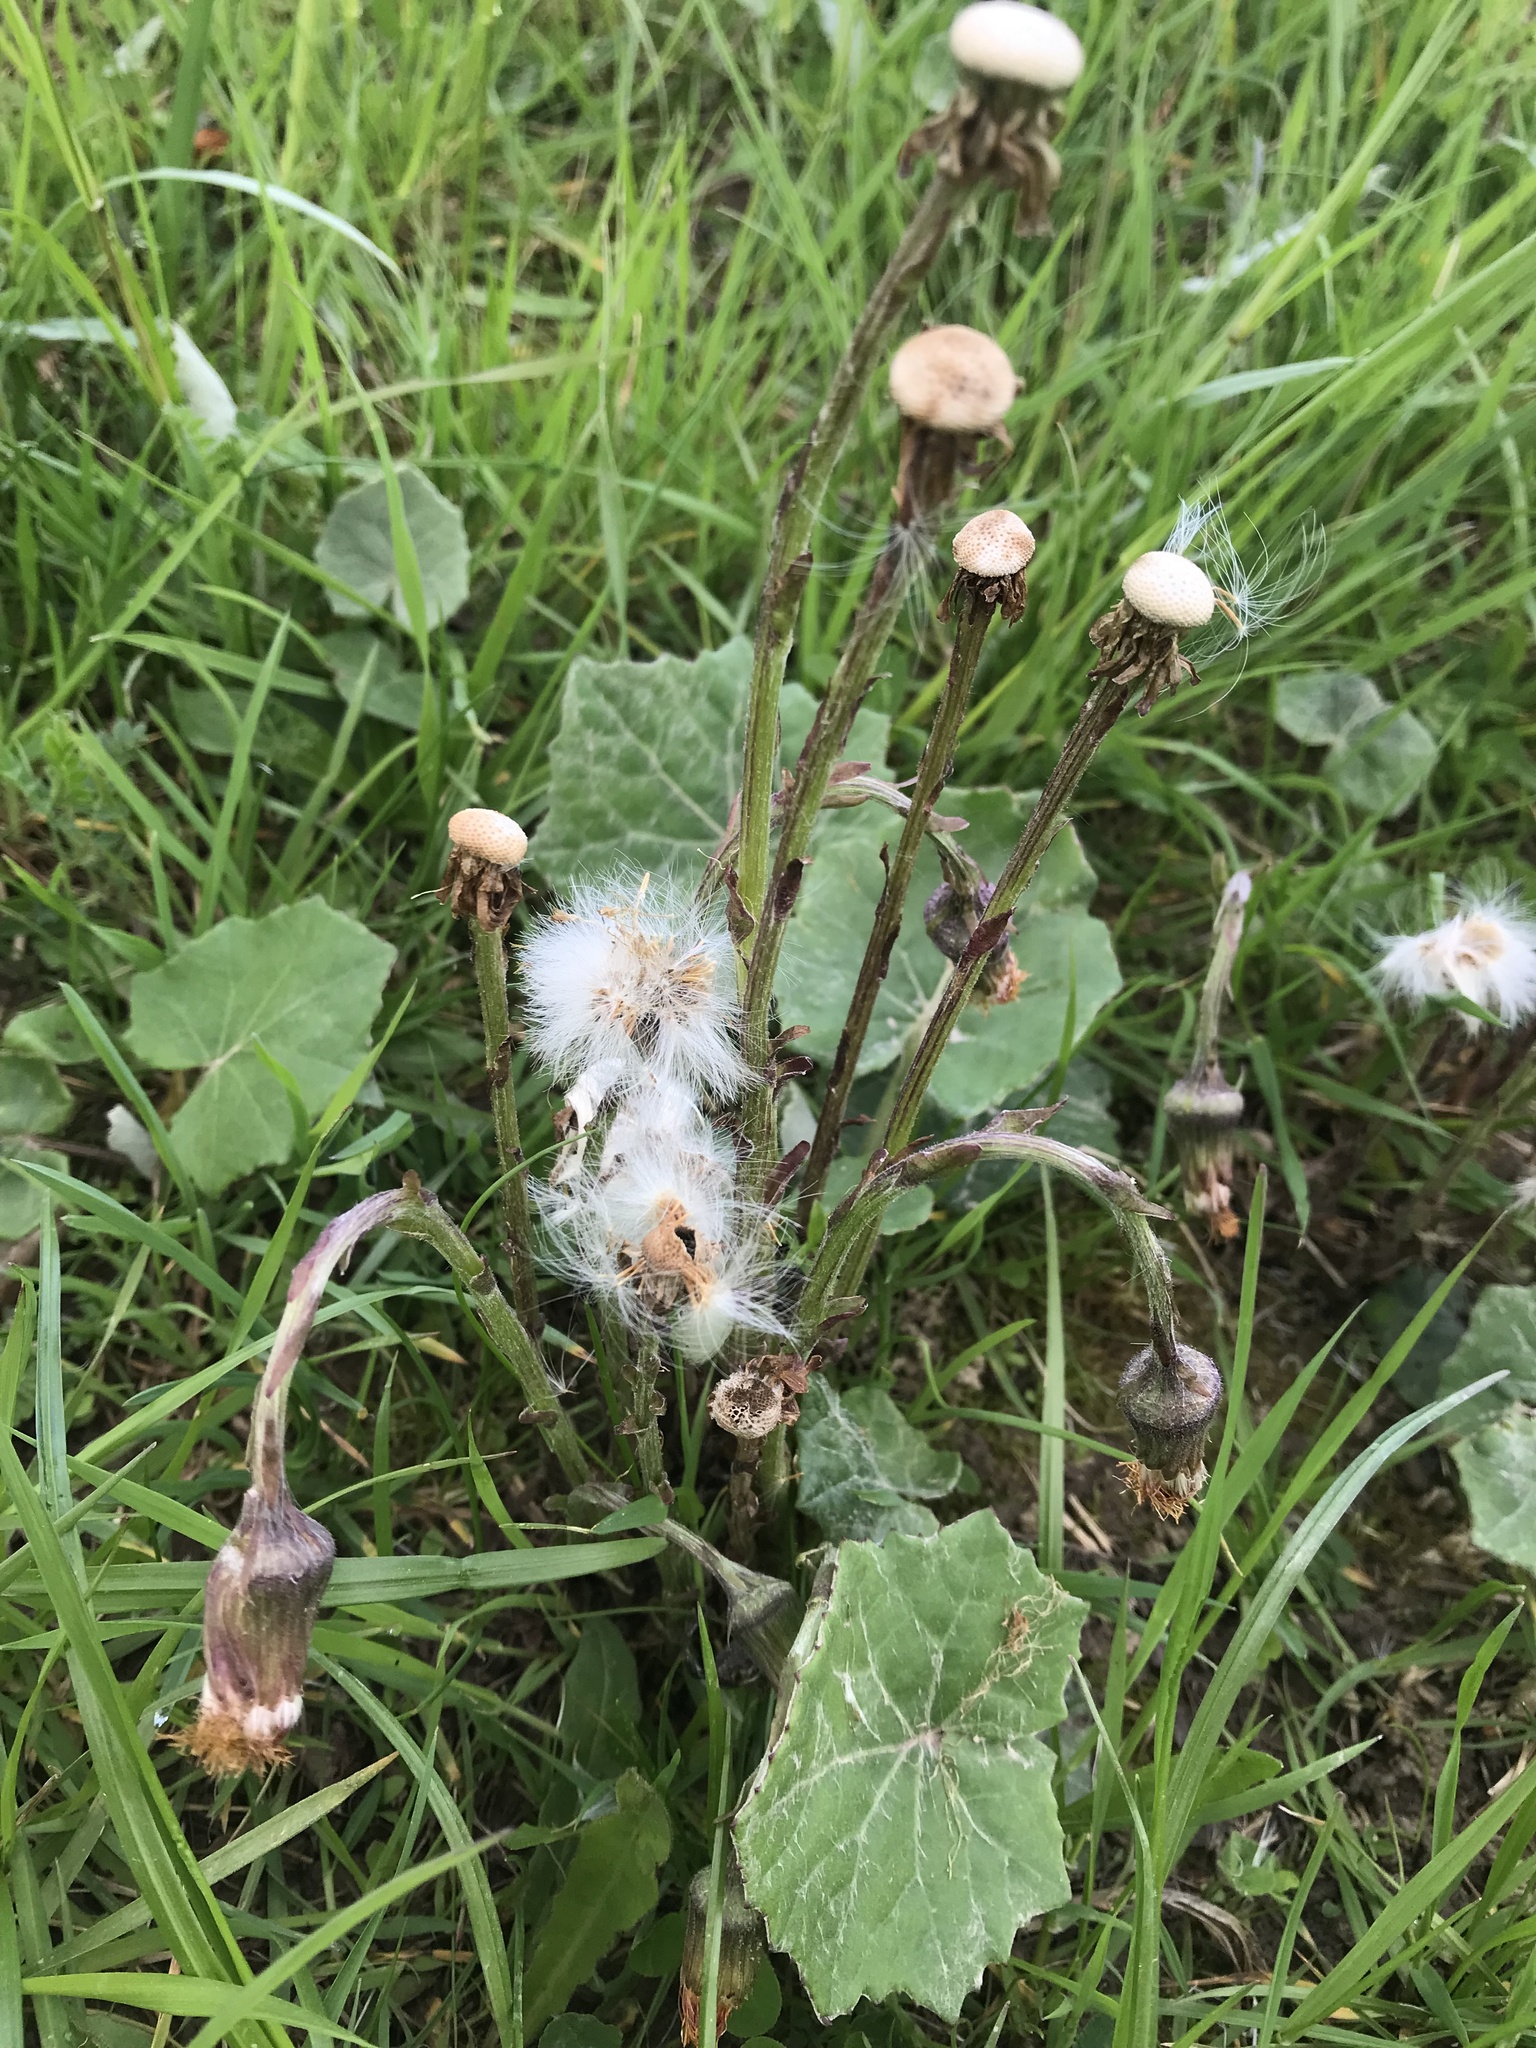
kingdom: Plantae
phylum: Tracheophyta
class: Magnoliopsida
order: Asterales
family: Asteraceae
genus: Tussilago
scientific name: Tussilago farfara
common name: Coltsfoot
